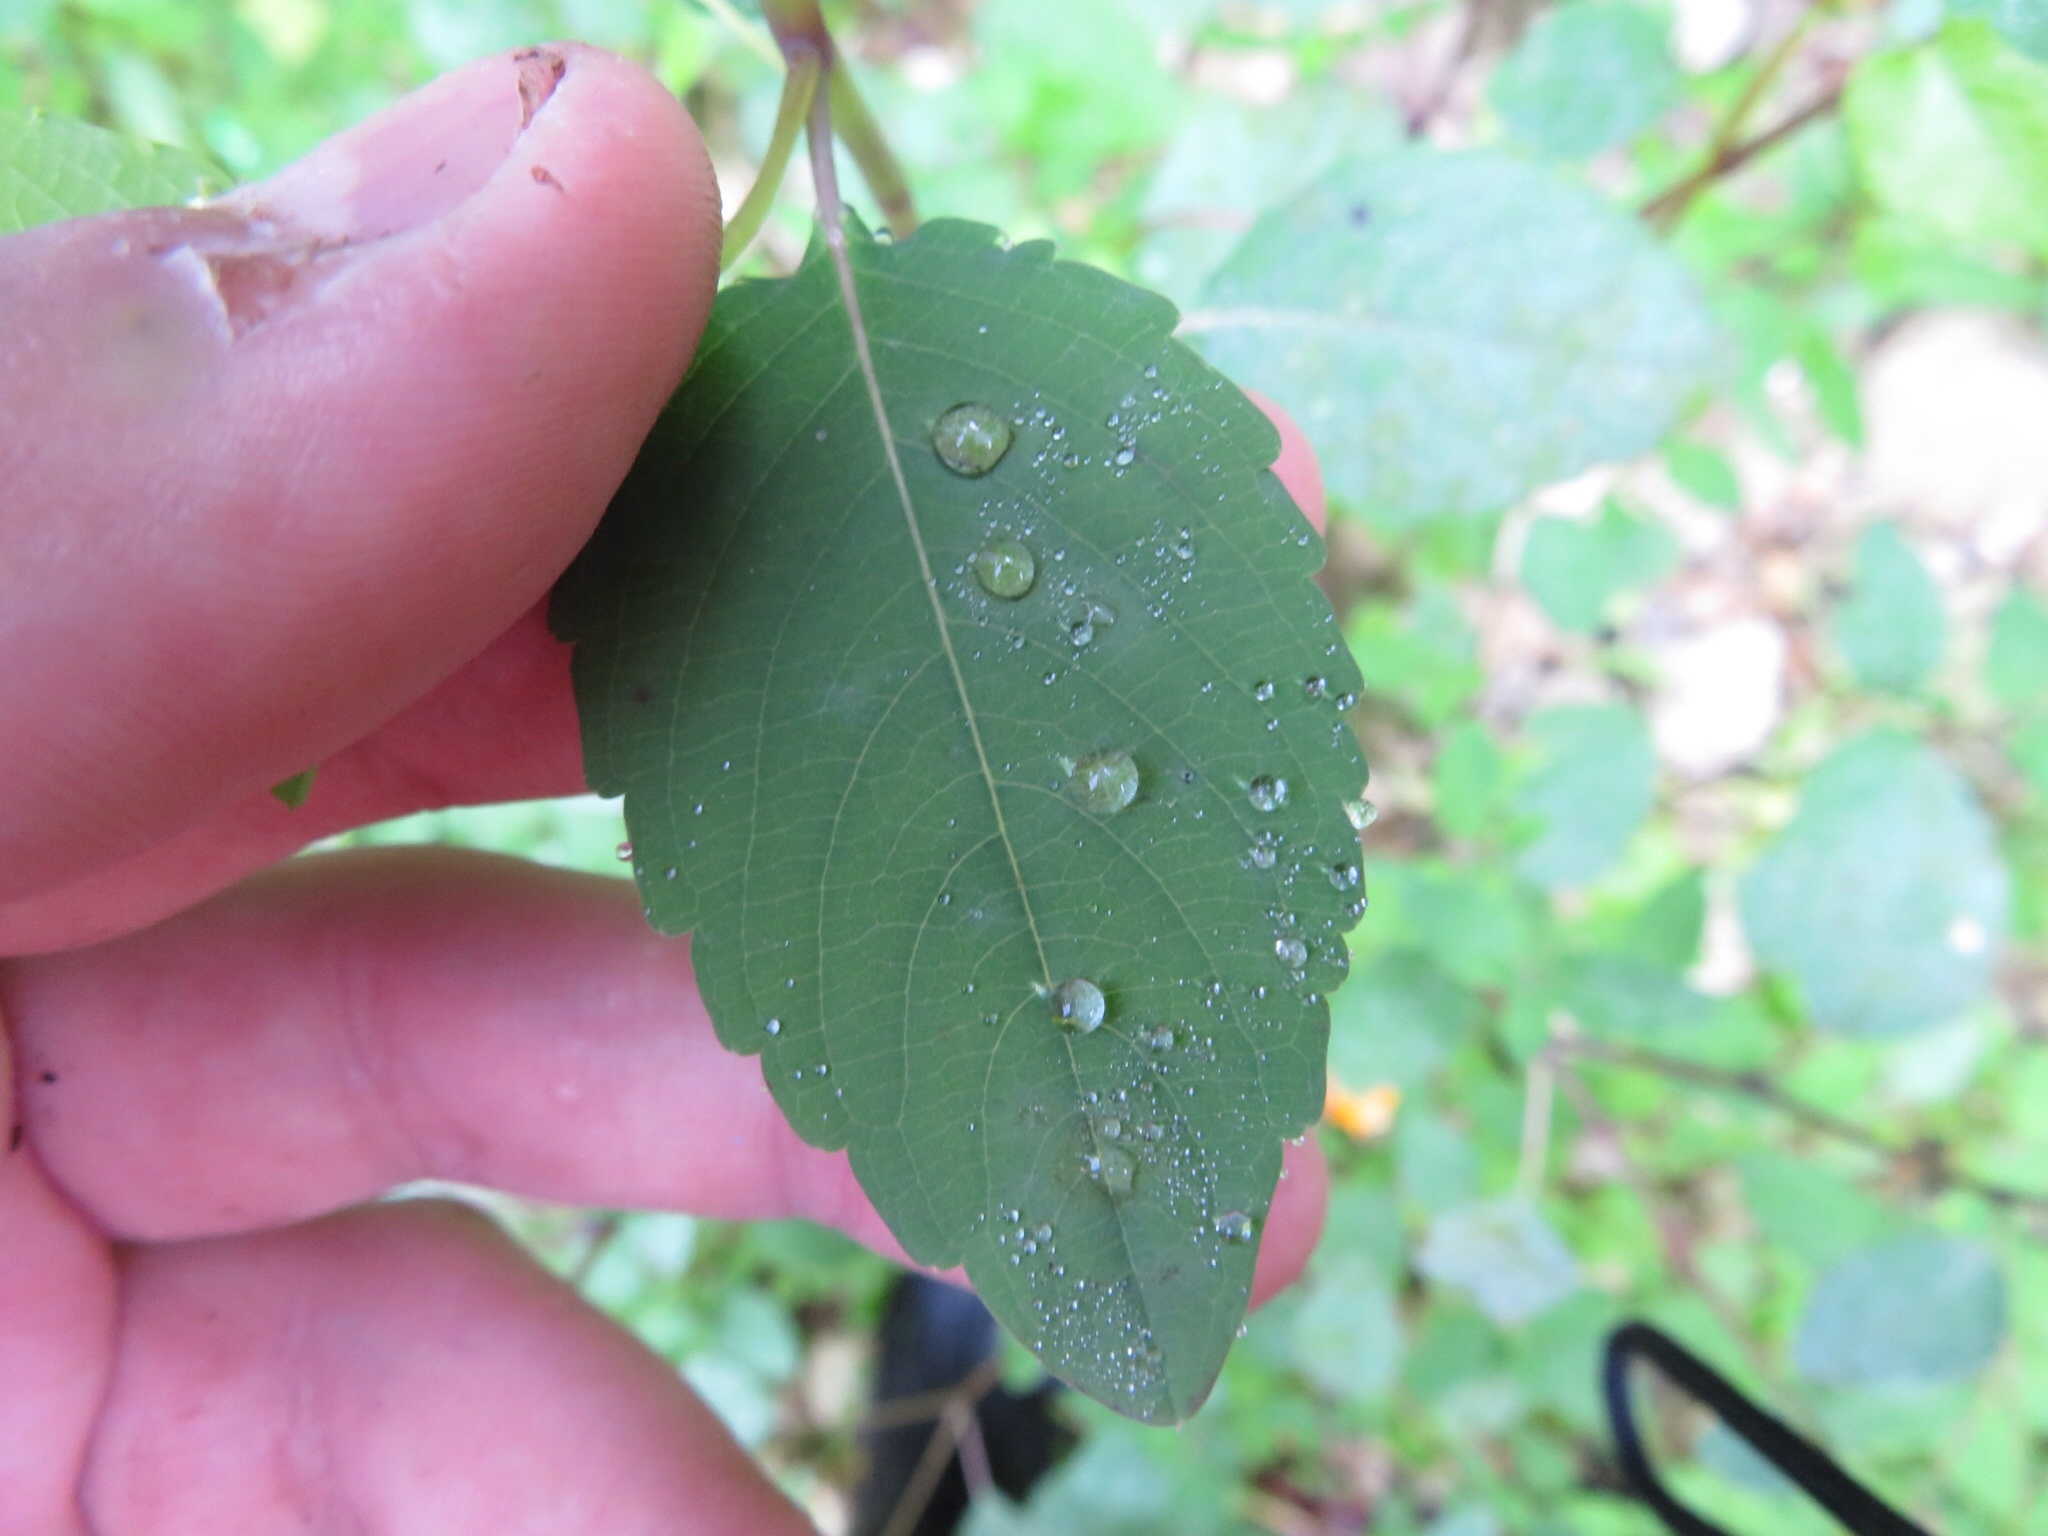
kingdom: Plantae
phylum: Tracheophyta
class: Magnoliopsida
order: Ericales
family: Balsaminaceae
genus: Impatiens
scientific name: Impatiens capensis
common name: Orange balsam
